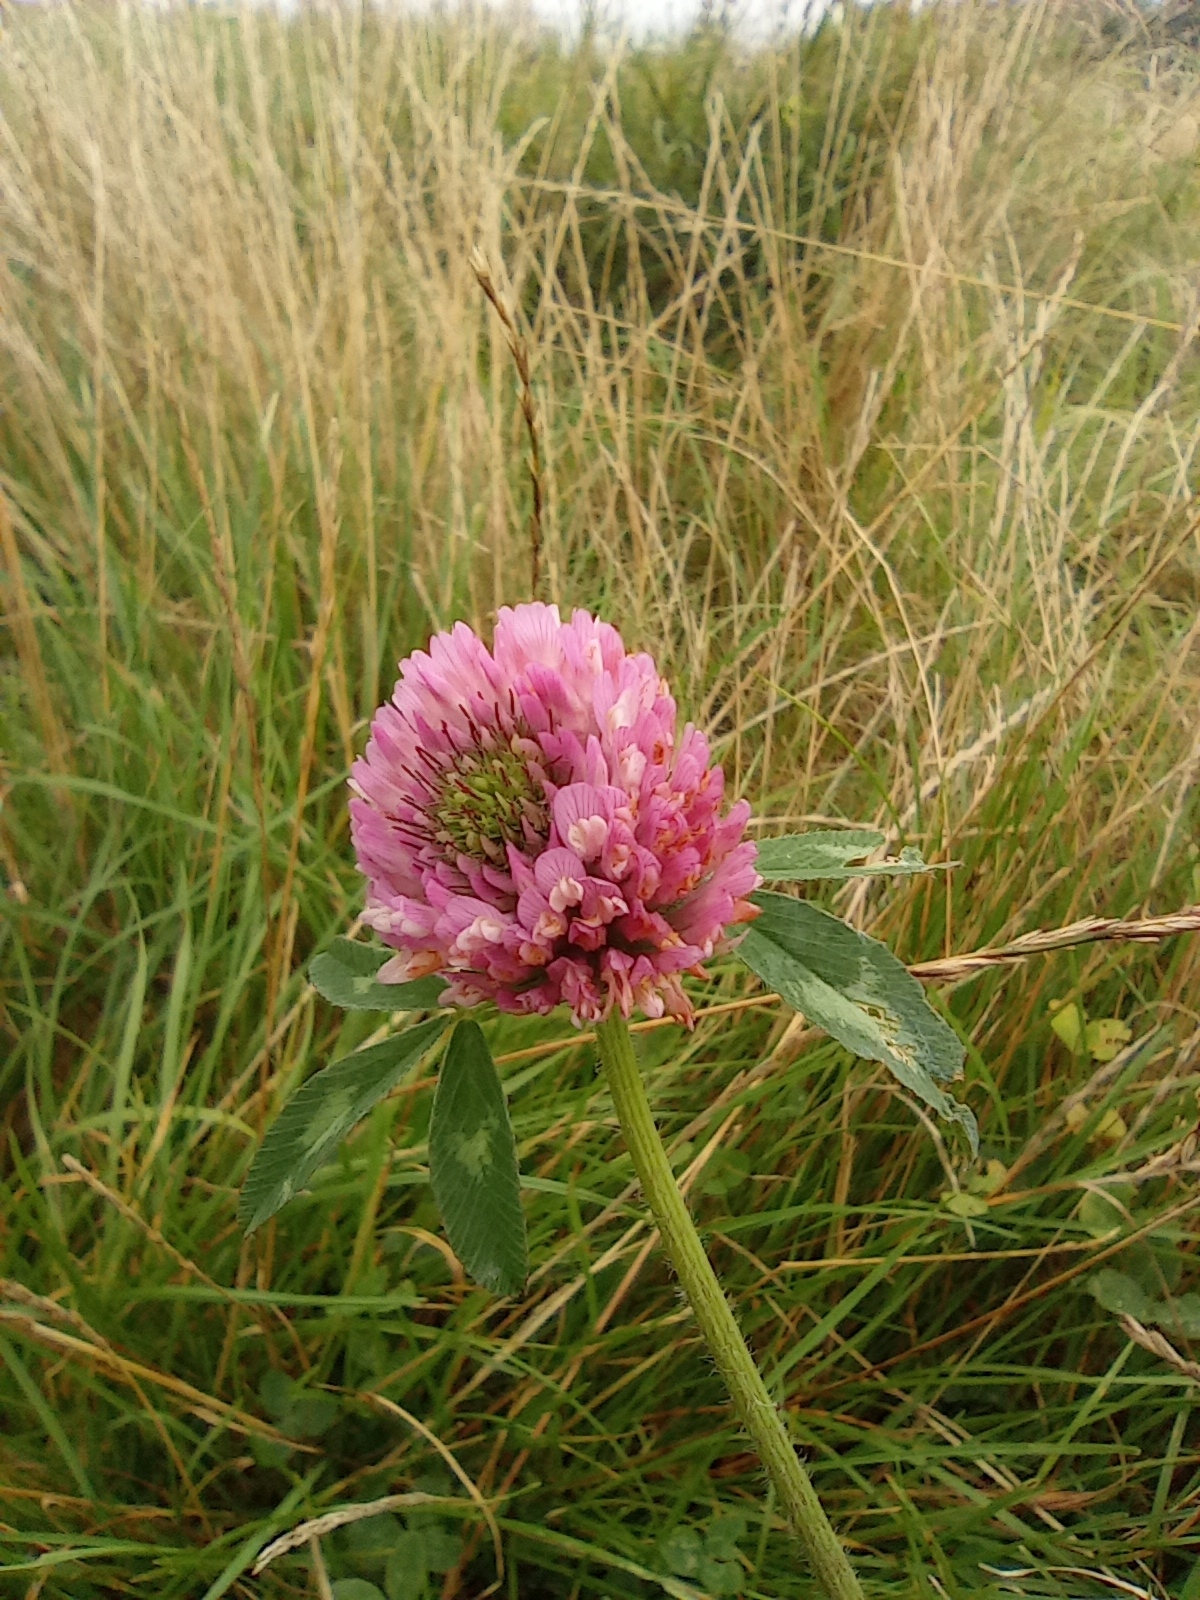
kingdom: Plantae
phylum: Tracheophyta
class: Magnoliopsida
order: Fabales
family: Fabaceae
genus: Trifolium
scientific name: Trifolium pratense
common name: Red clover
